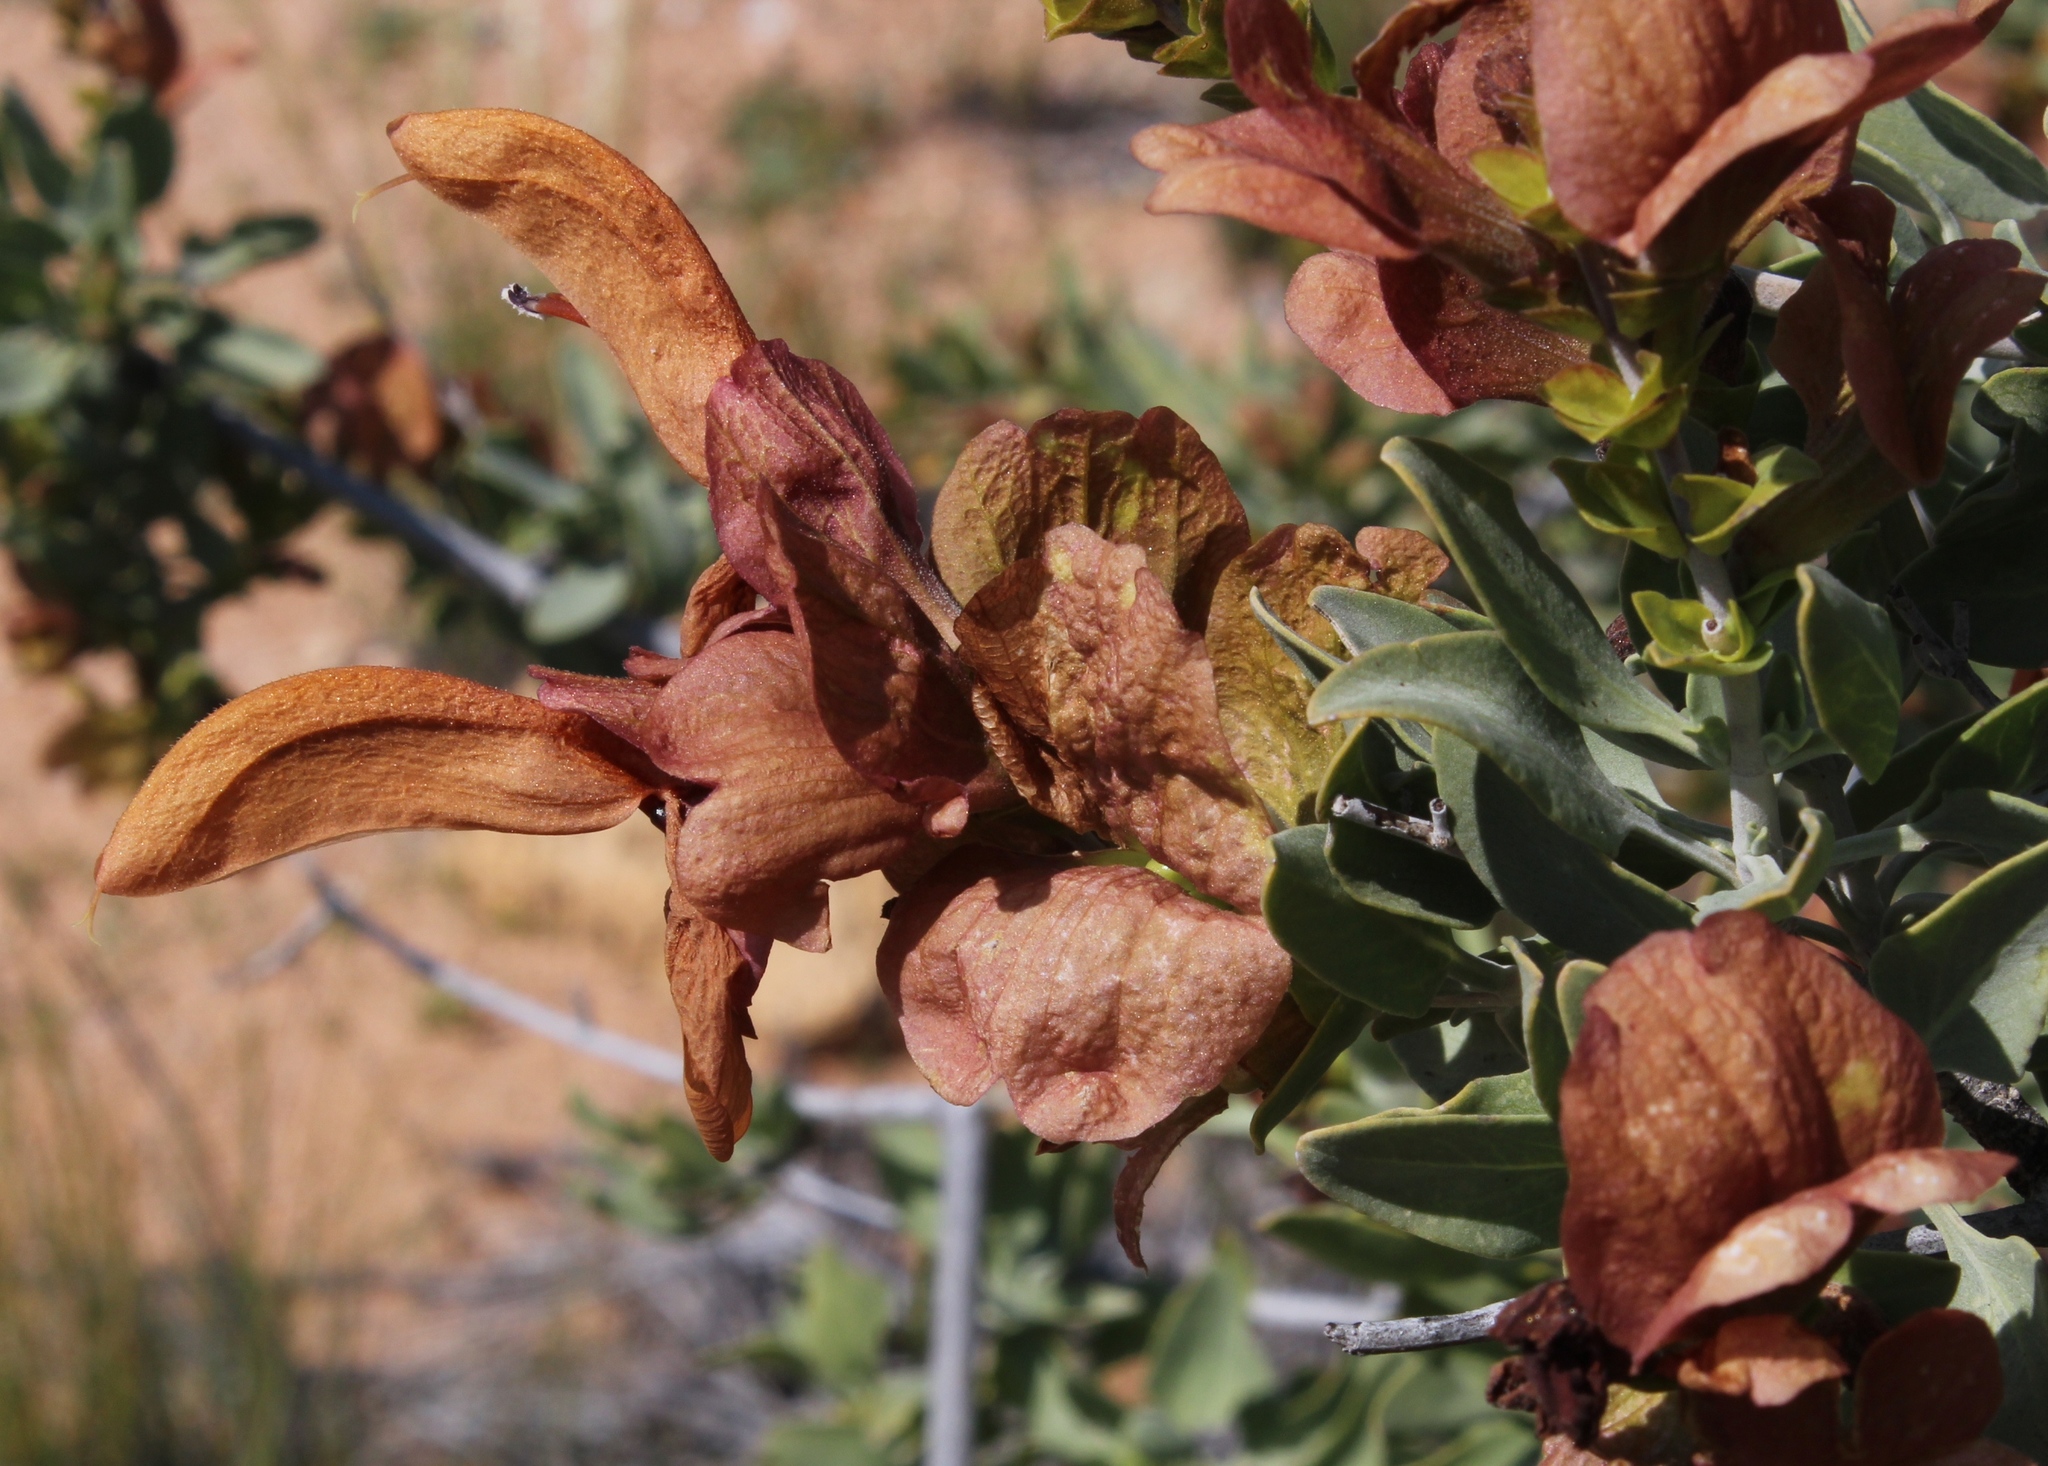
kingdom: Plantae
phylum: Tracheophyta
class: Magnoliopsida
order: Lamiales
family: Lamiaceae
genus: Salvia
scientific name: Salvia aurea
